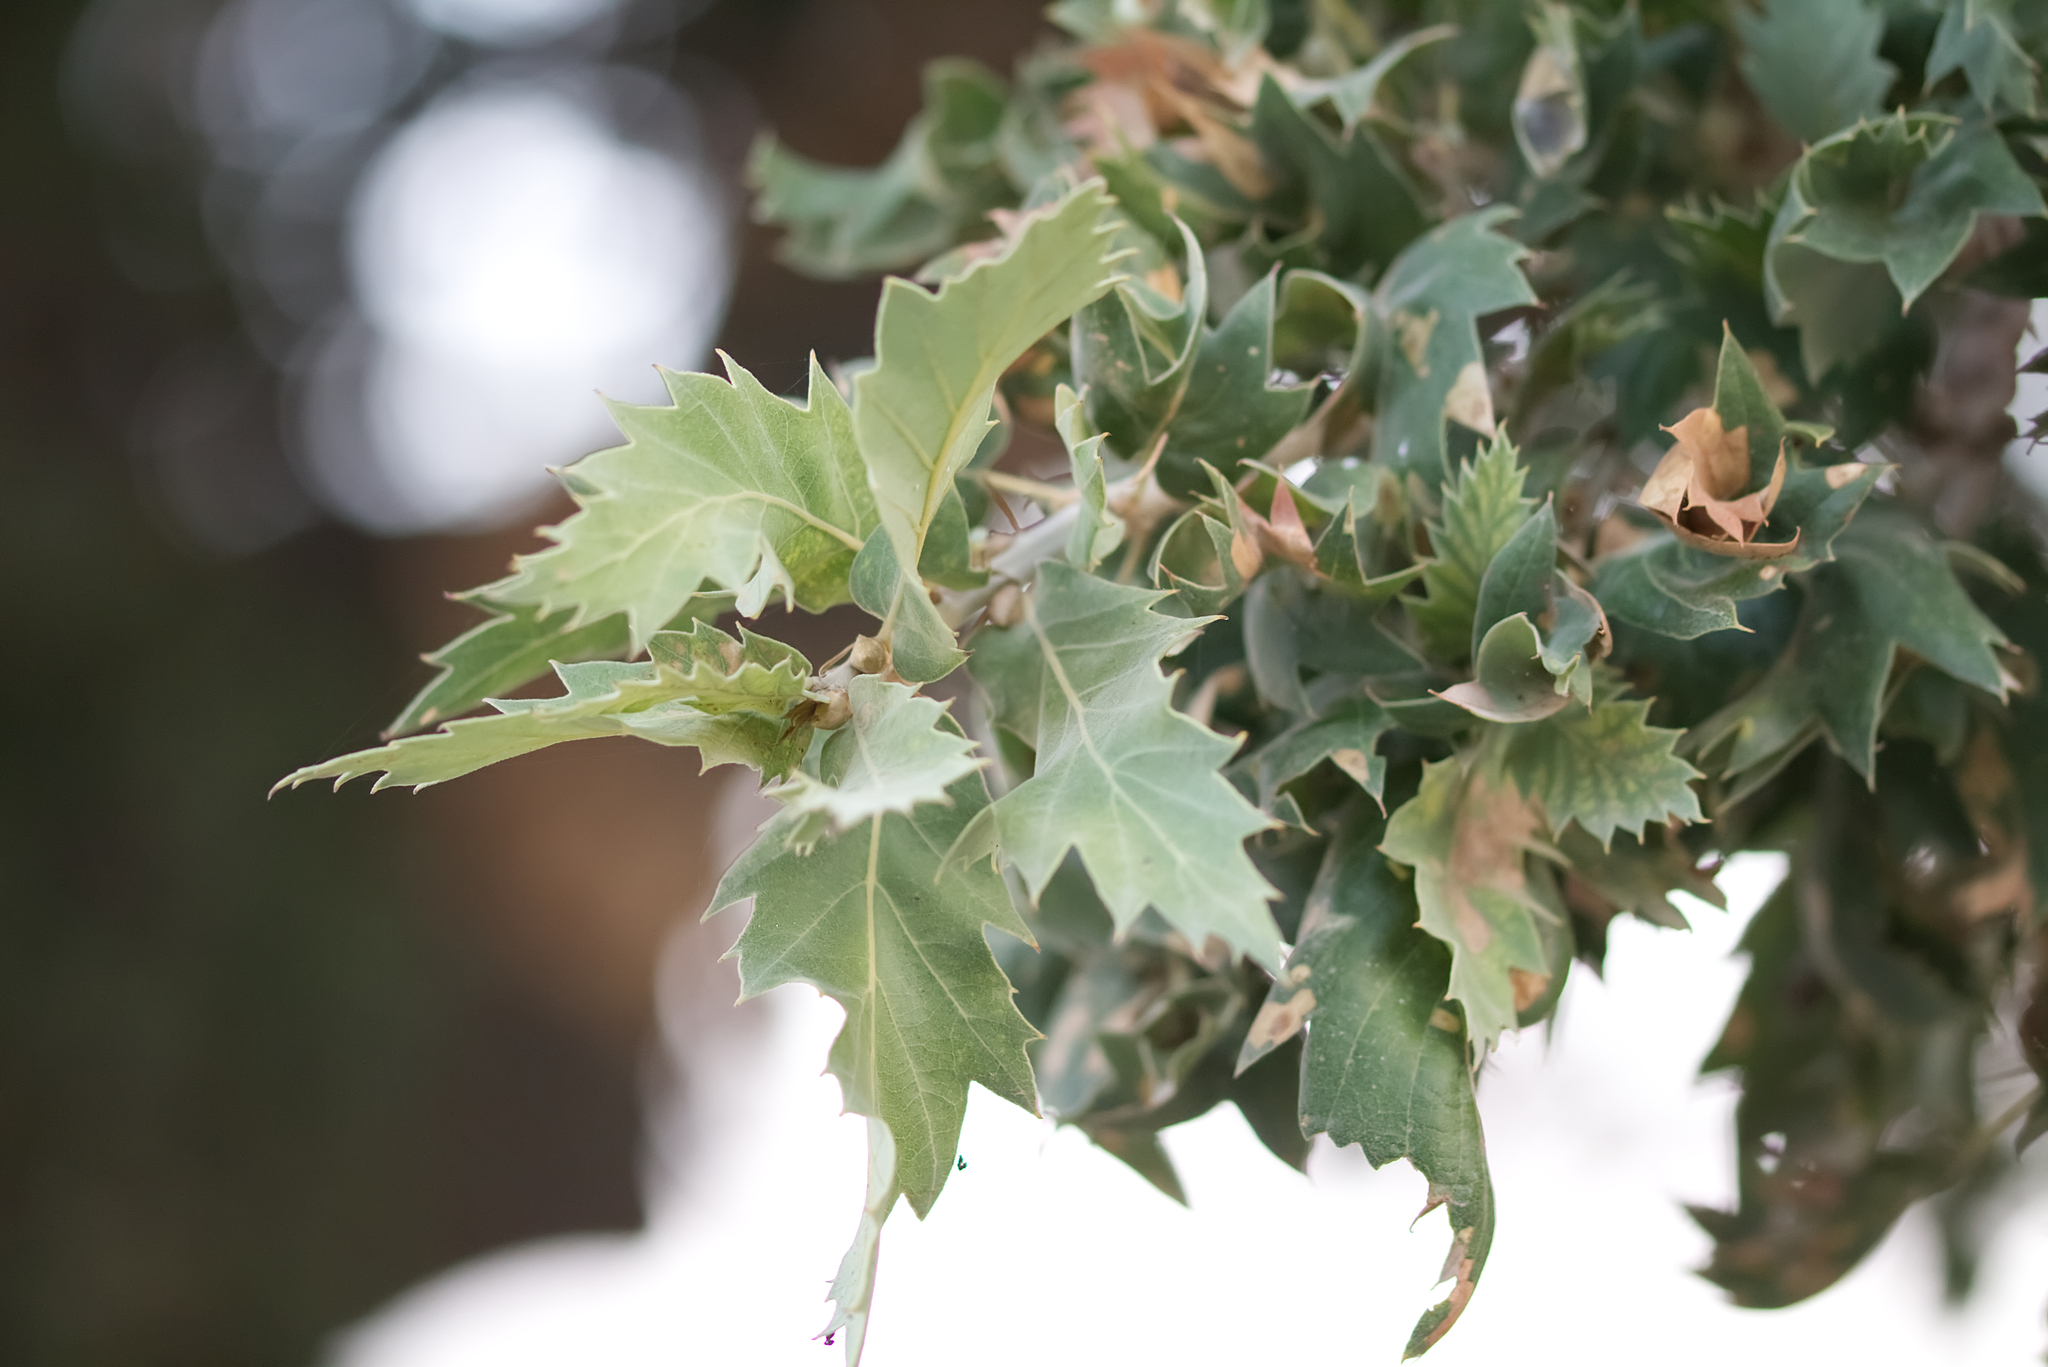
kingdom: Plantae
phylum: Tracheophyta
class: Magnoliopsida
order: Fagales
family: Fagaceae
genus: Quercus
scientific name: Quercus ithaburensis
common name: Tabor oak
